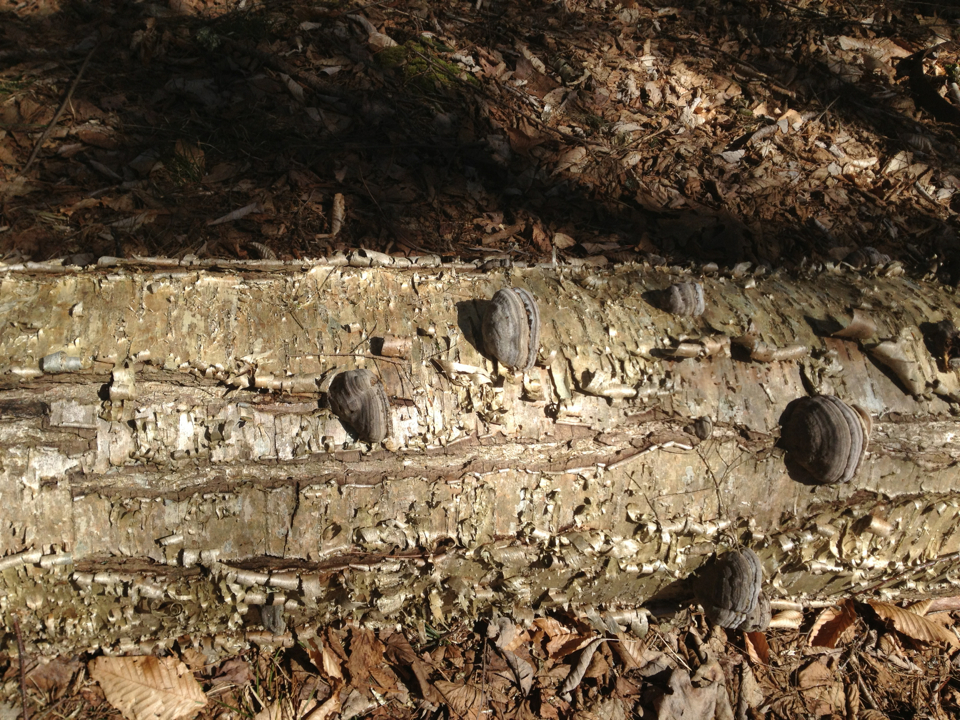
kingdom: Plantae
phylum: Tracheophyta
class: Magnoliopsida
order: Fagales
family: Betulaceae
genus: Betula
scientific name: Betula alleghaniensis
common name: Yellow birch
